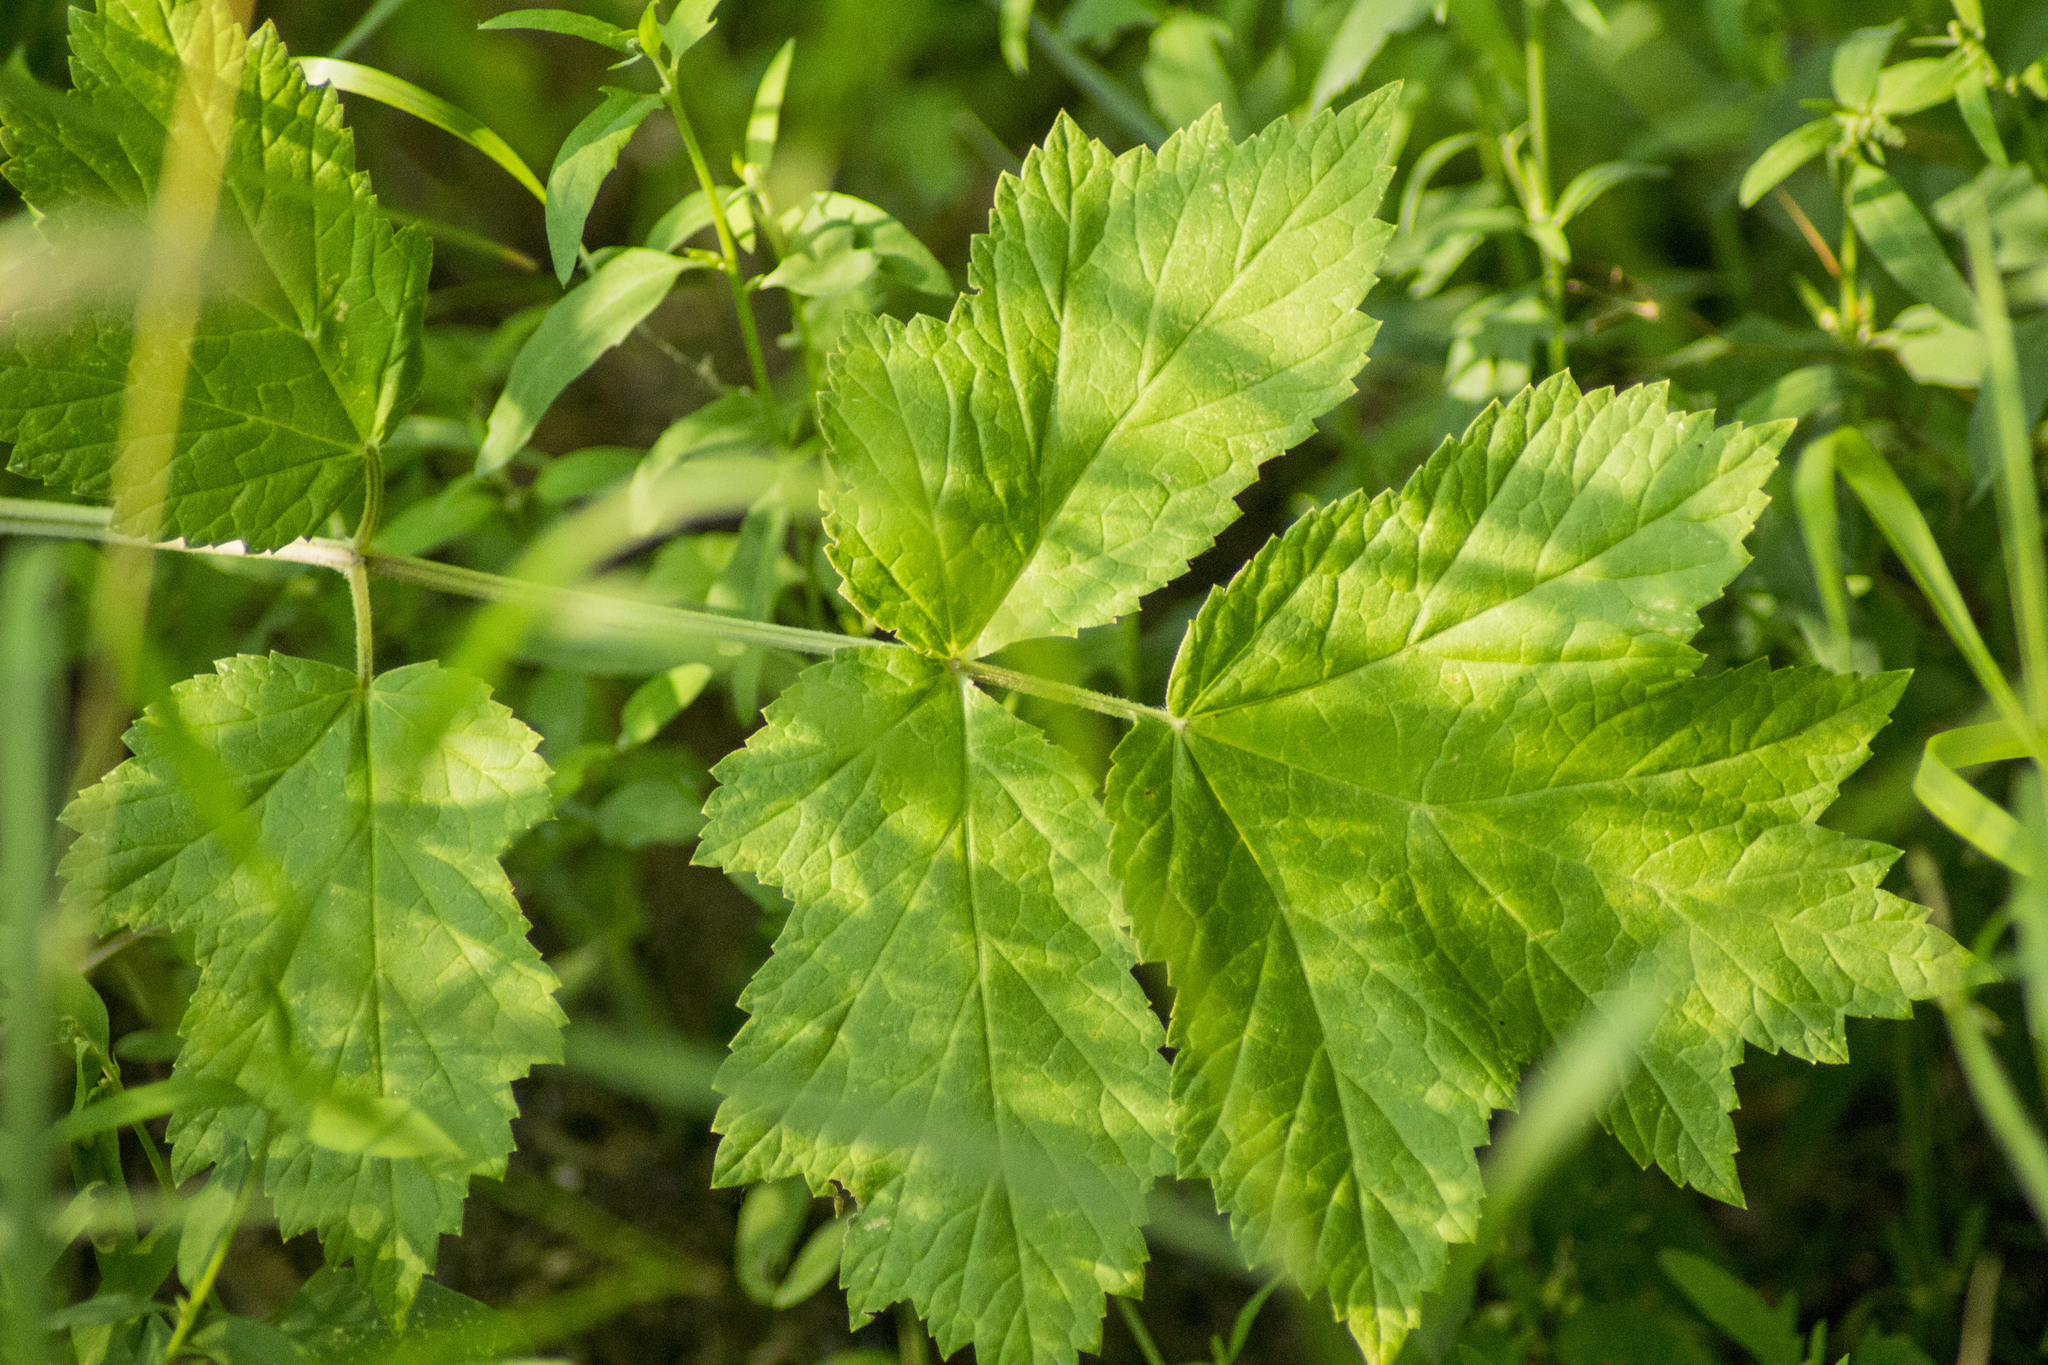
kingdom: Plantae
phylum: Tracheophyta
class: Magnoliopsida
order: Apiales
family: Apiaceae
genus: Heracleum
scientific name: Heracleum sphondylium
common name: Hogweed
